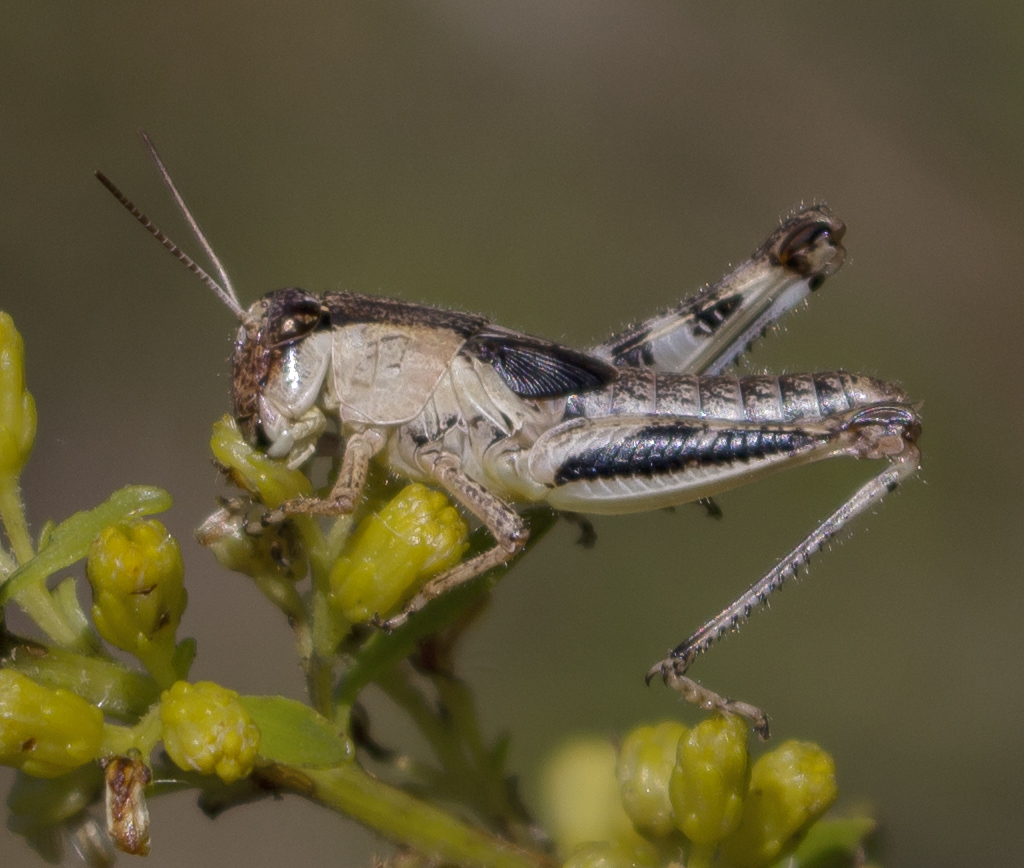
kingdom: Animalia
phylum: Arthropoda
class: Insecta
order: Orthoptera
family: Acrididae
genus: Melanoplus
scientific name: Melanoplus keeleri
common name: Keeler grasshopper
